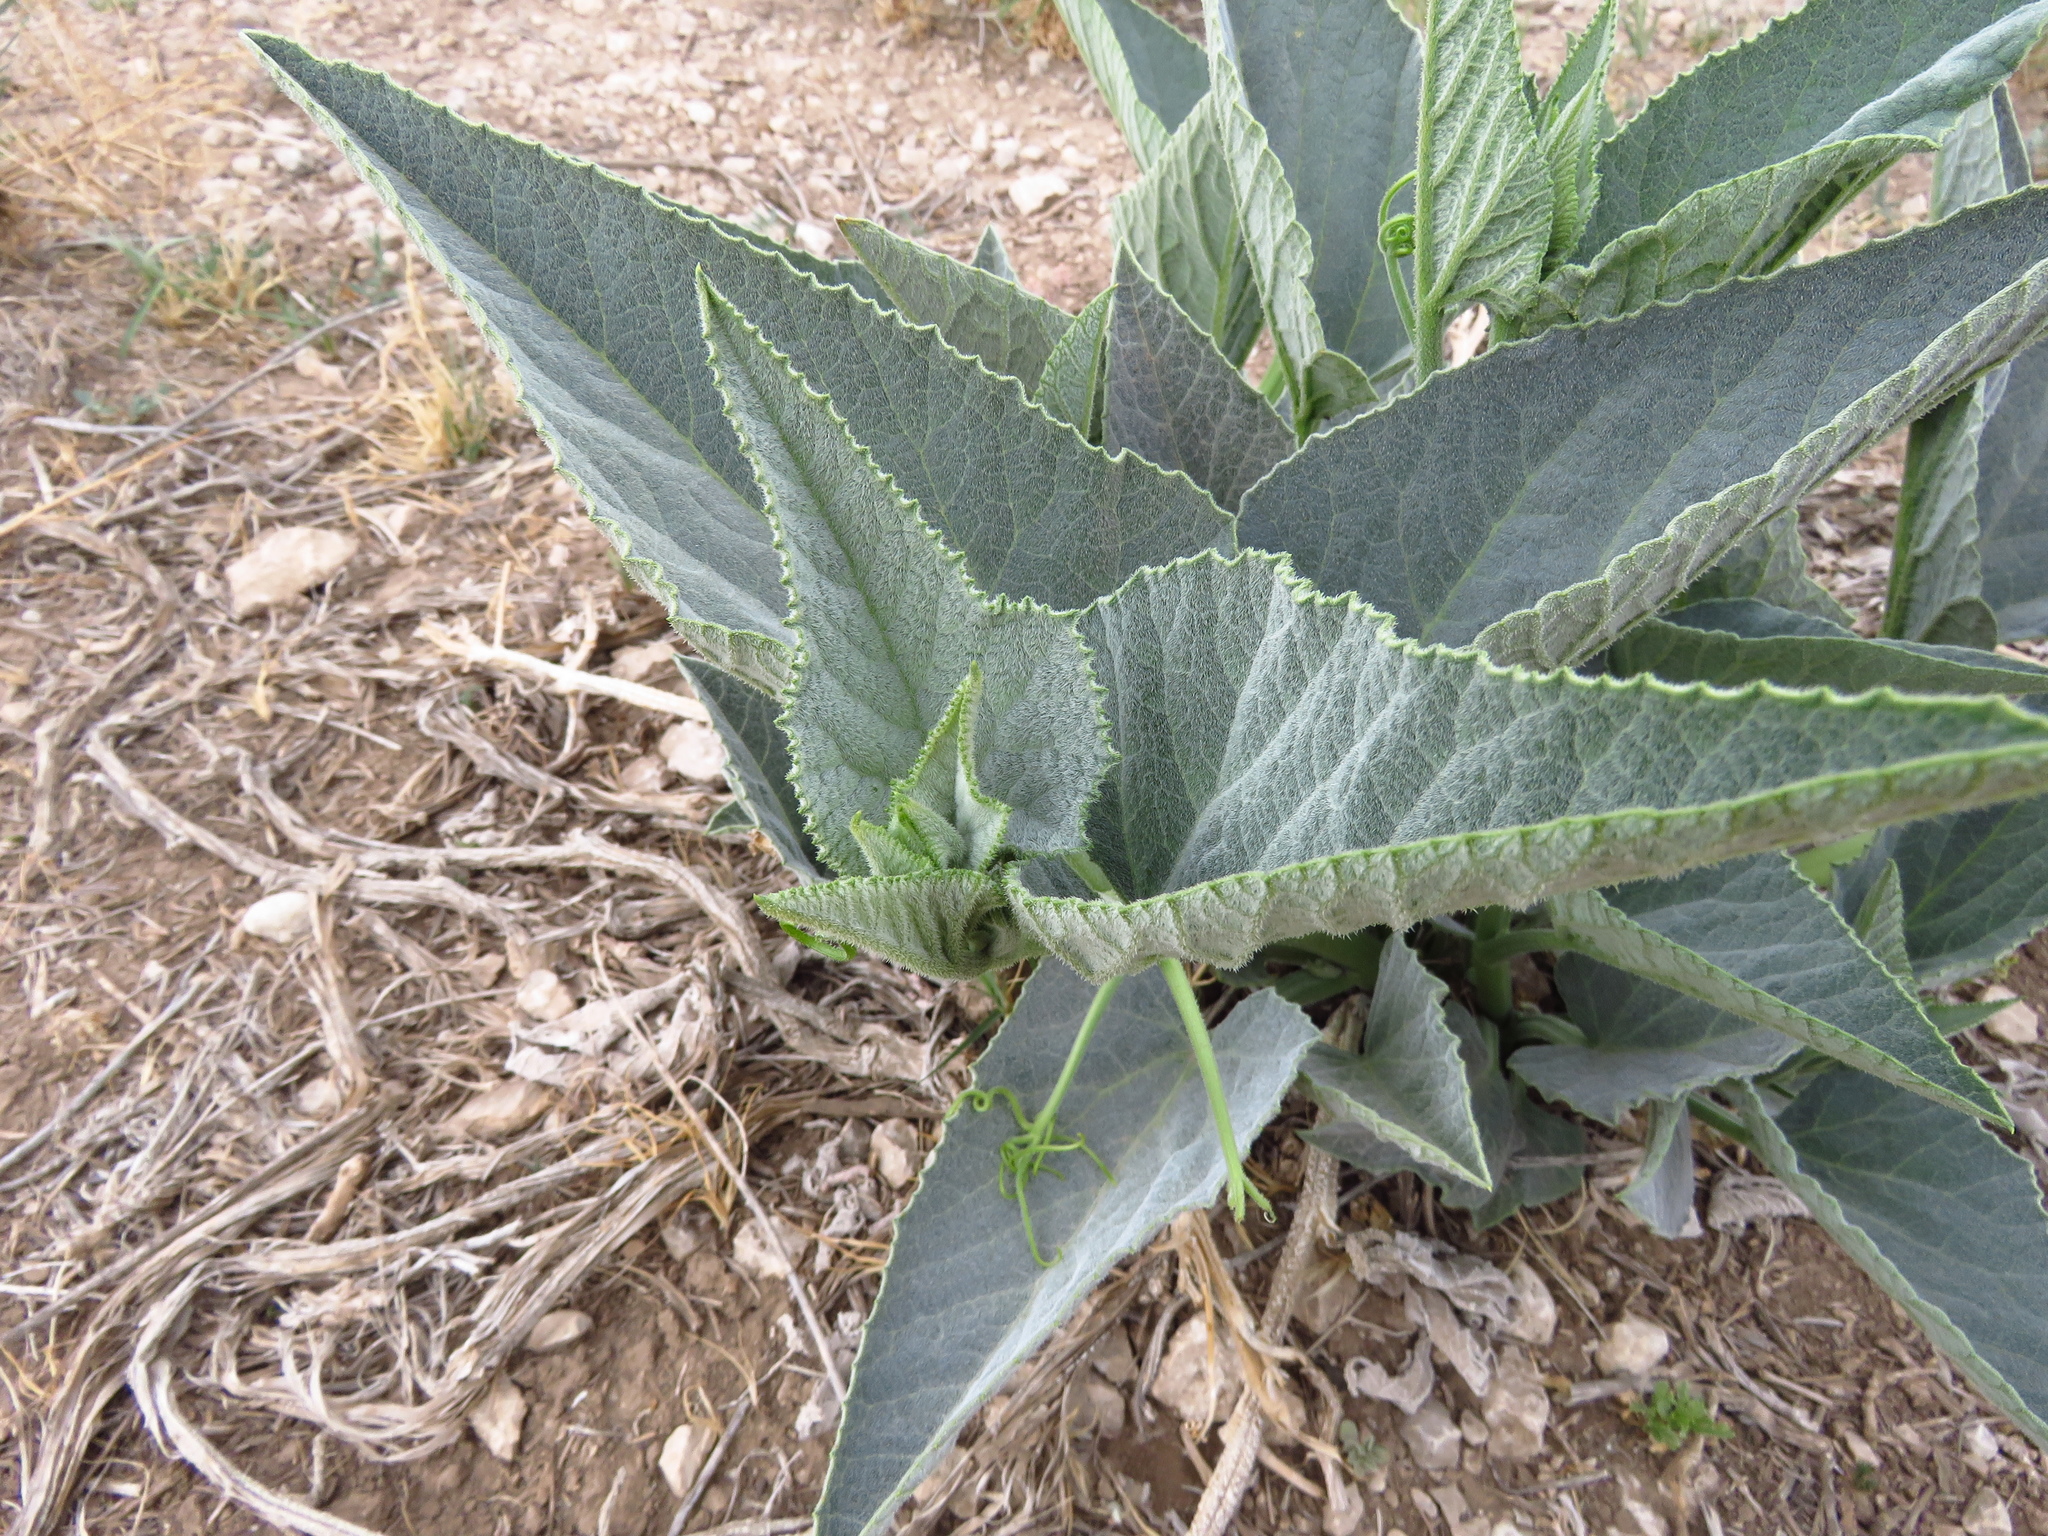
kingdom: Plantae
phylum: Tracheophyta
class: Magnoliopsida
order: Cucurbitales
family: Cucurbitaceae
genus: Cucurbita
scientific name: Cucurbita foetidissima
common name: Buffalo gourd
